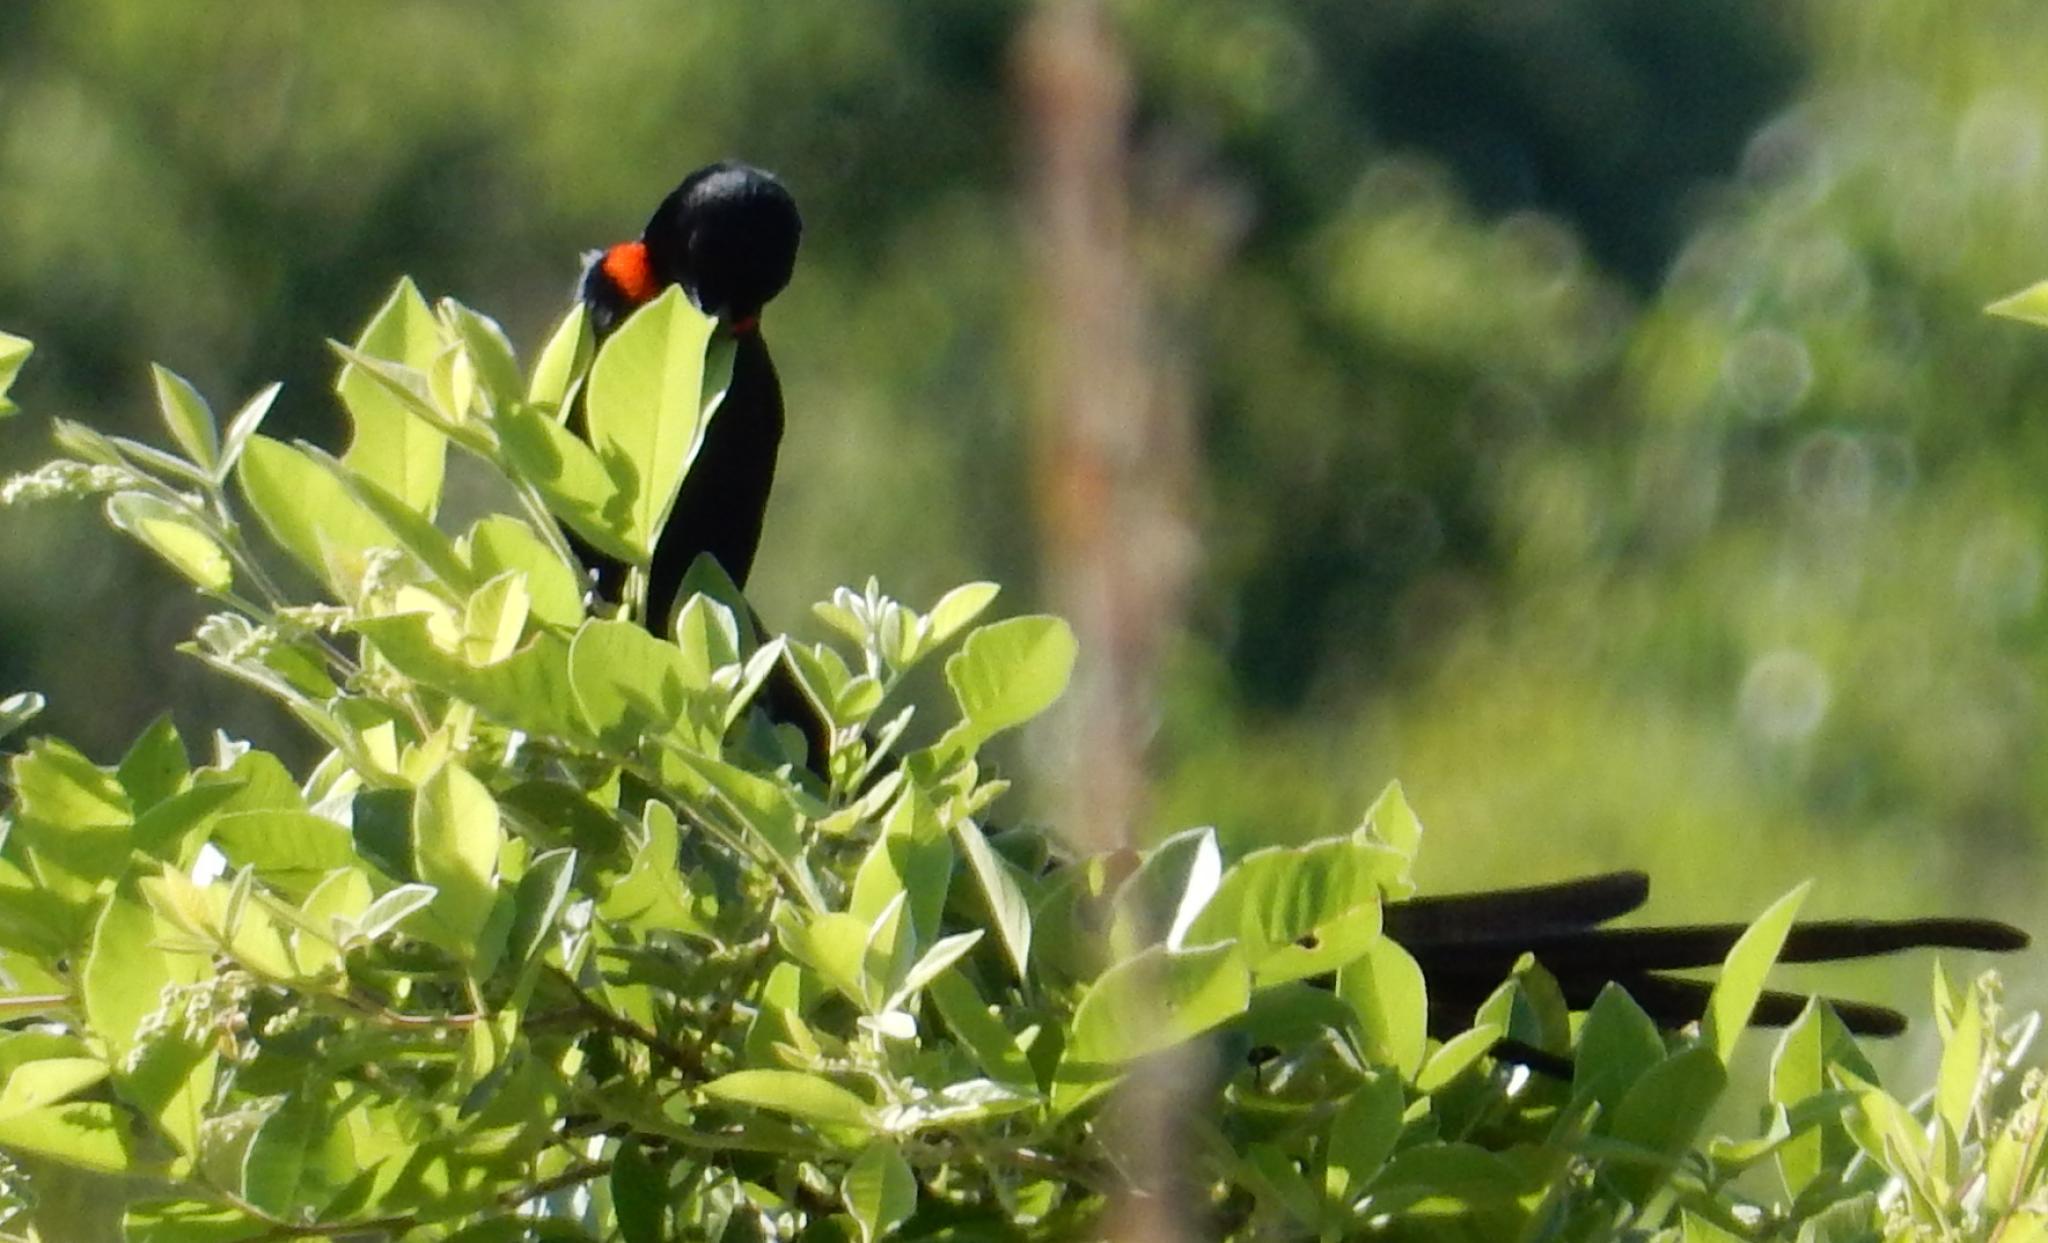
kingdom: Animalia
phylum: Chordata
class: Aves
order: Passeriformes
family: Ploceidae
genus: Euplectes
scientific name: Euplectes ardens
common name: Red-collared widowbird
